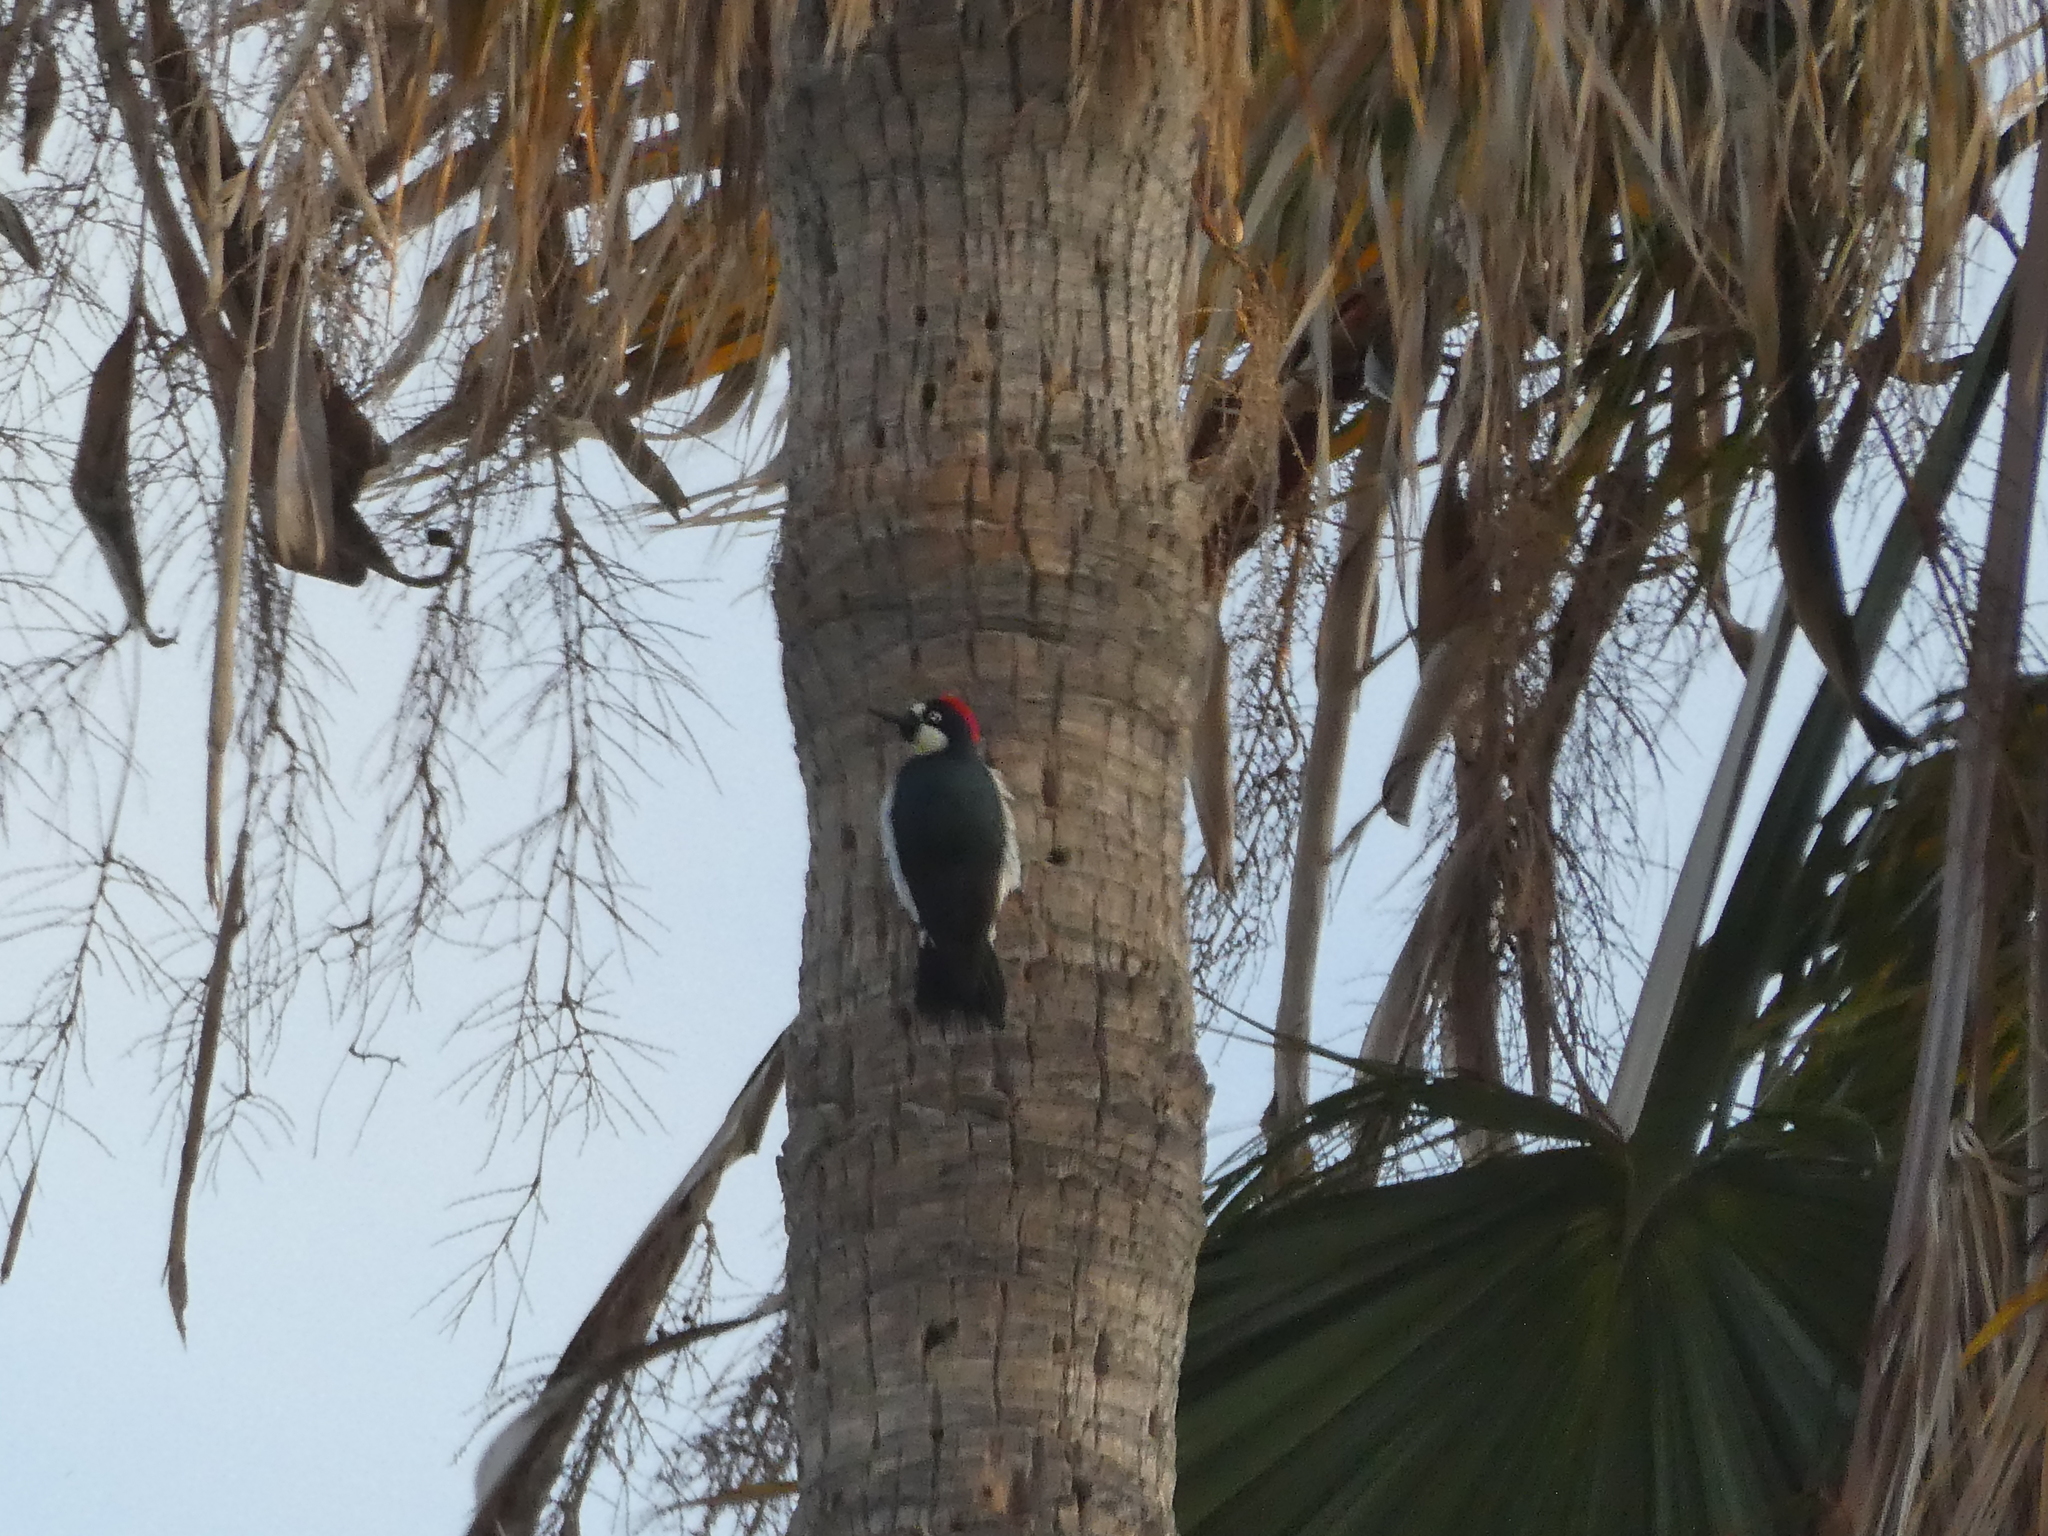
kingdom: Animalia
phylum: Chordata
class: Aves
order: Piciformes
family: Picidae
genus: Melanerpes
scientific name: Melanerpes formicivorus
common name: Acorn woodpecker
